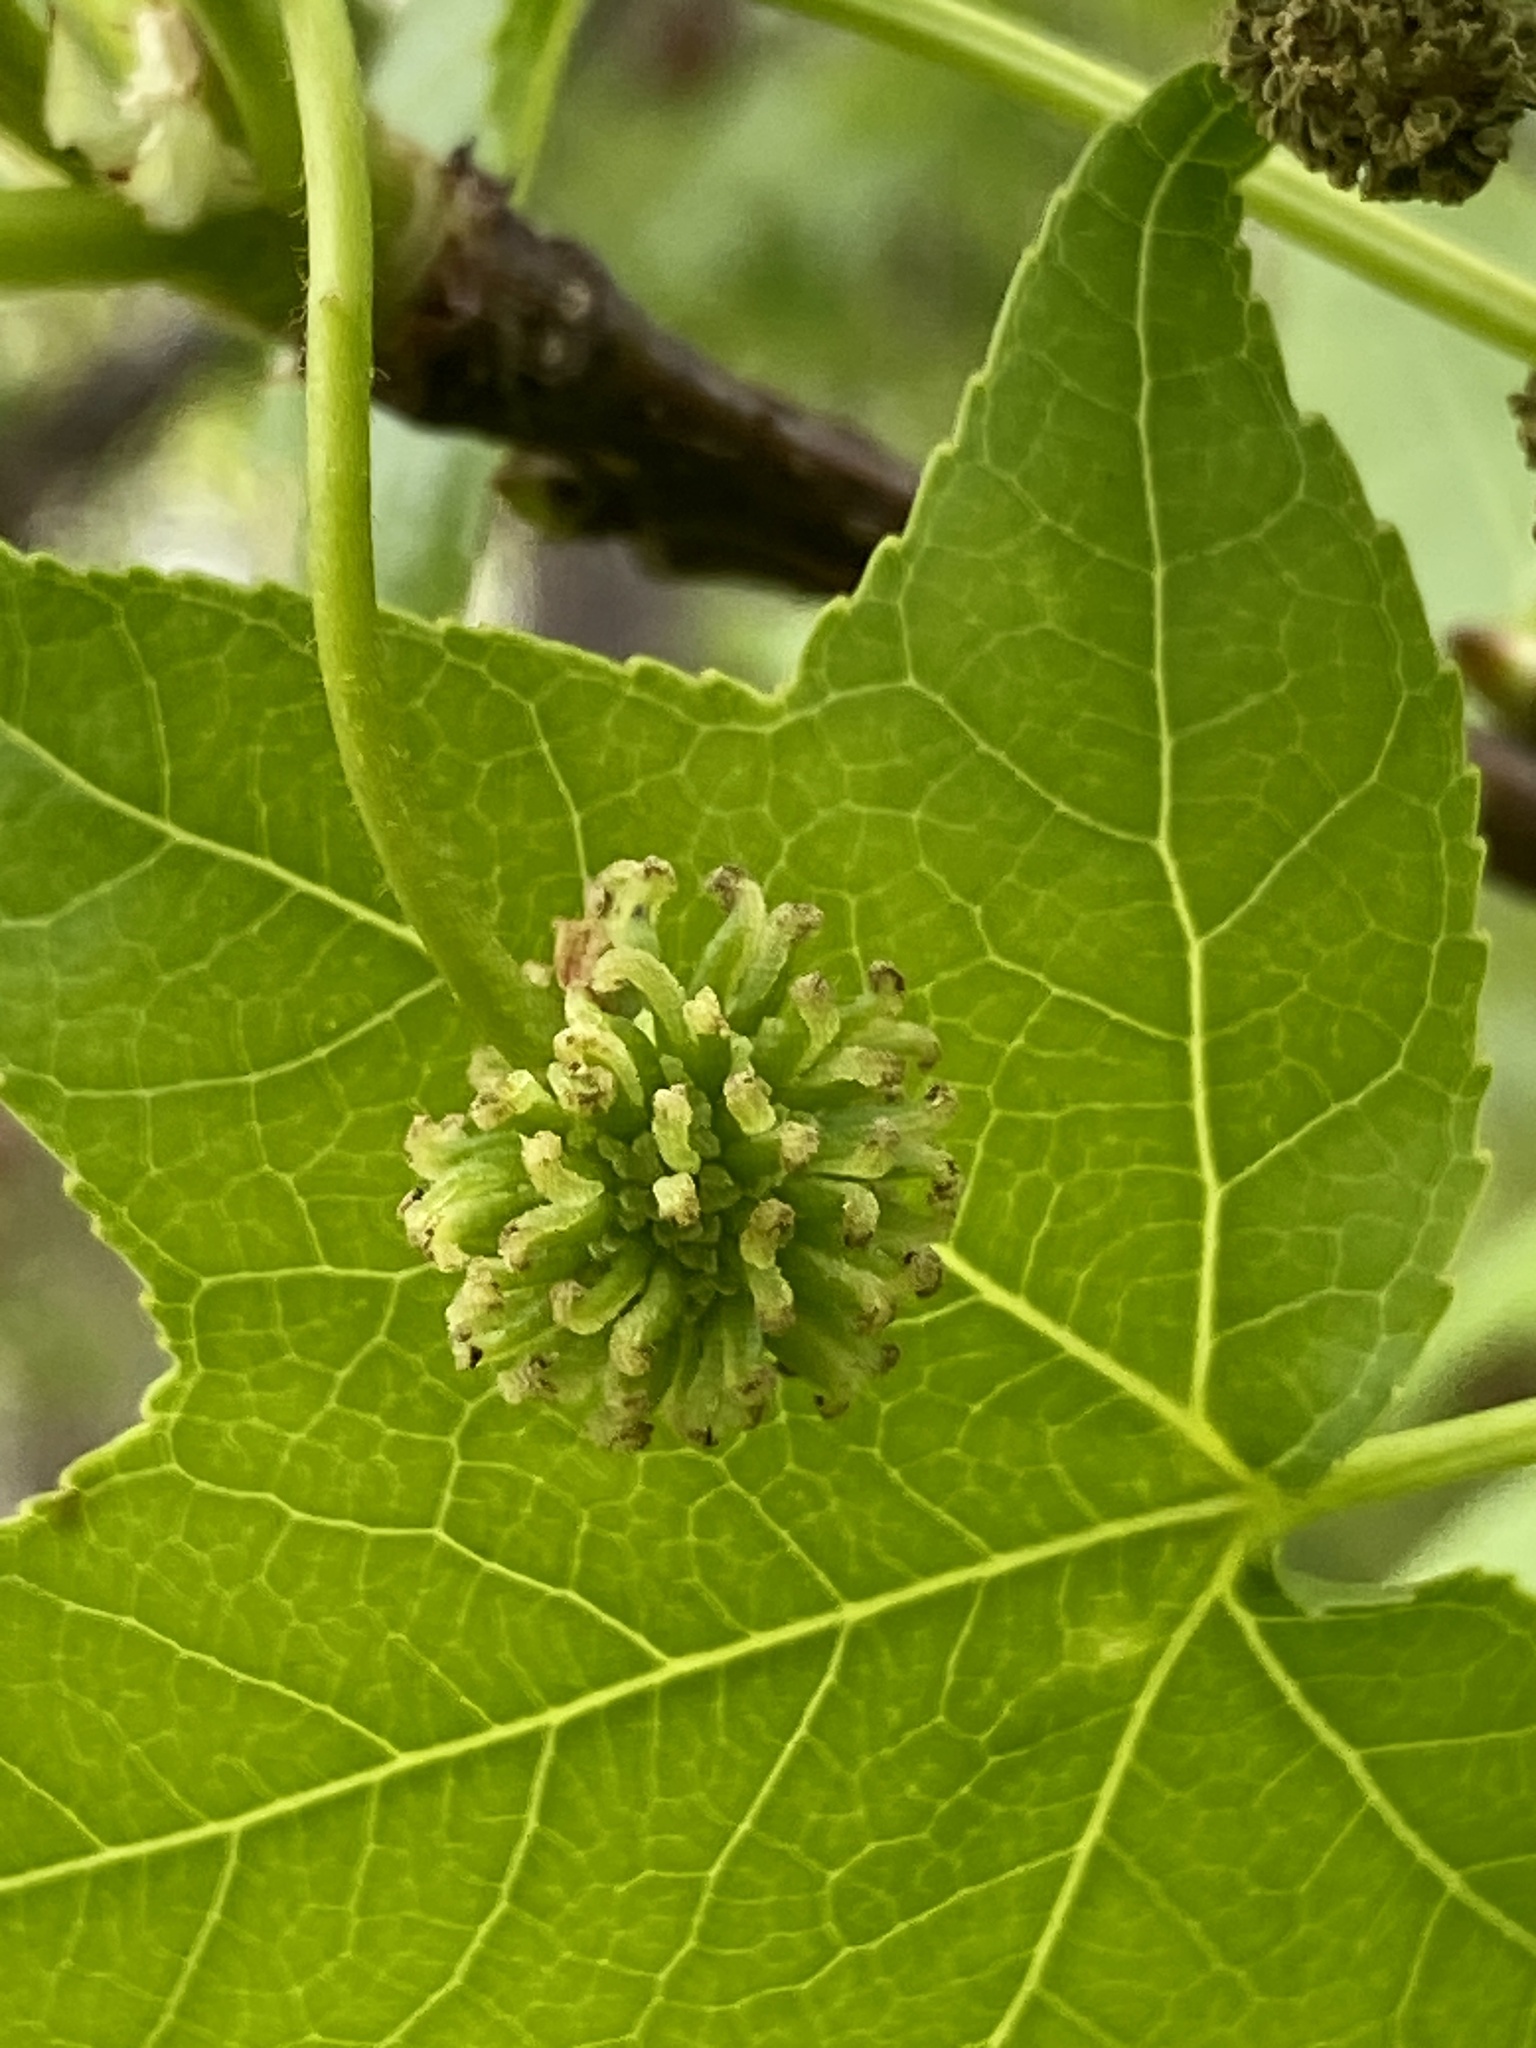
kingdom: Plantae
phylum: Tracheophyta
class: Magnoliopsida
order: Saxifragales
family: Altingiaceae
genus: Liquidambar
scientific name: Liquidambar styraciflua
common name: Sweet gum
